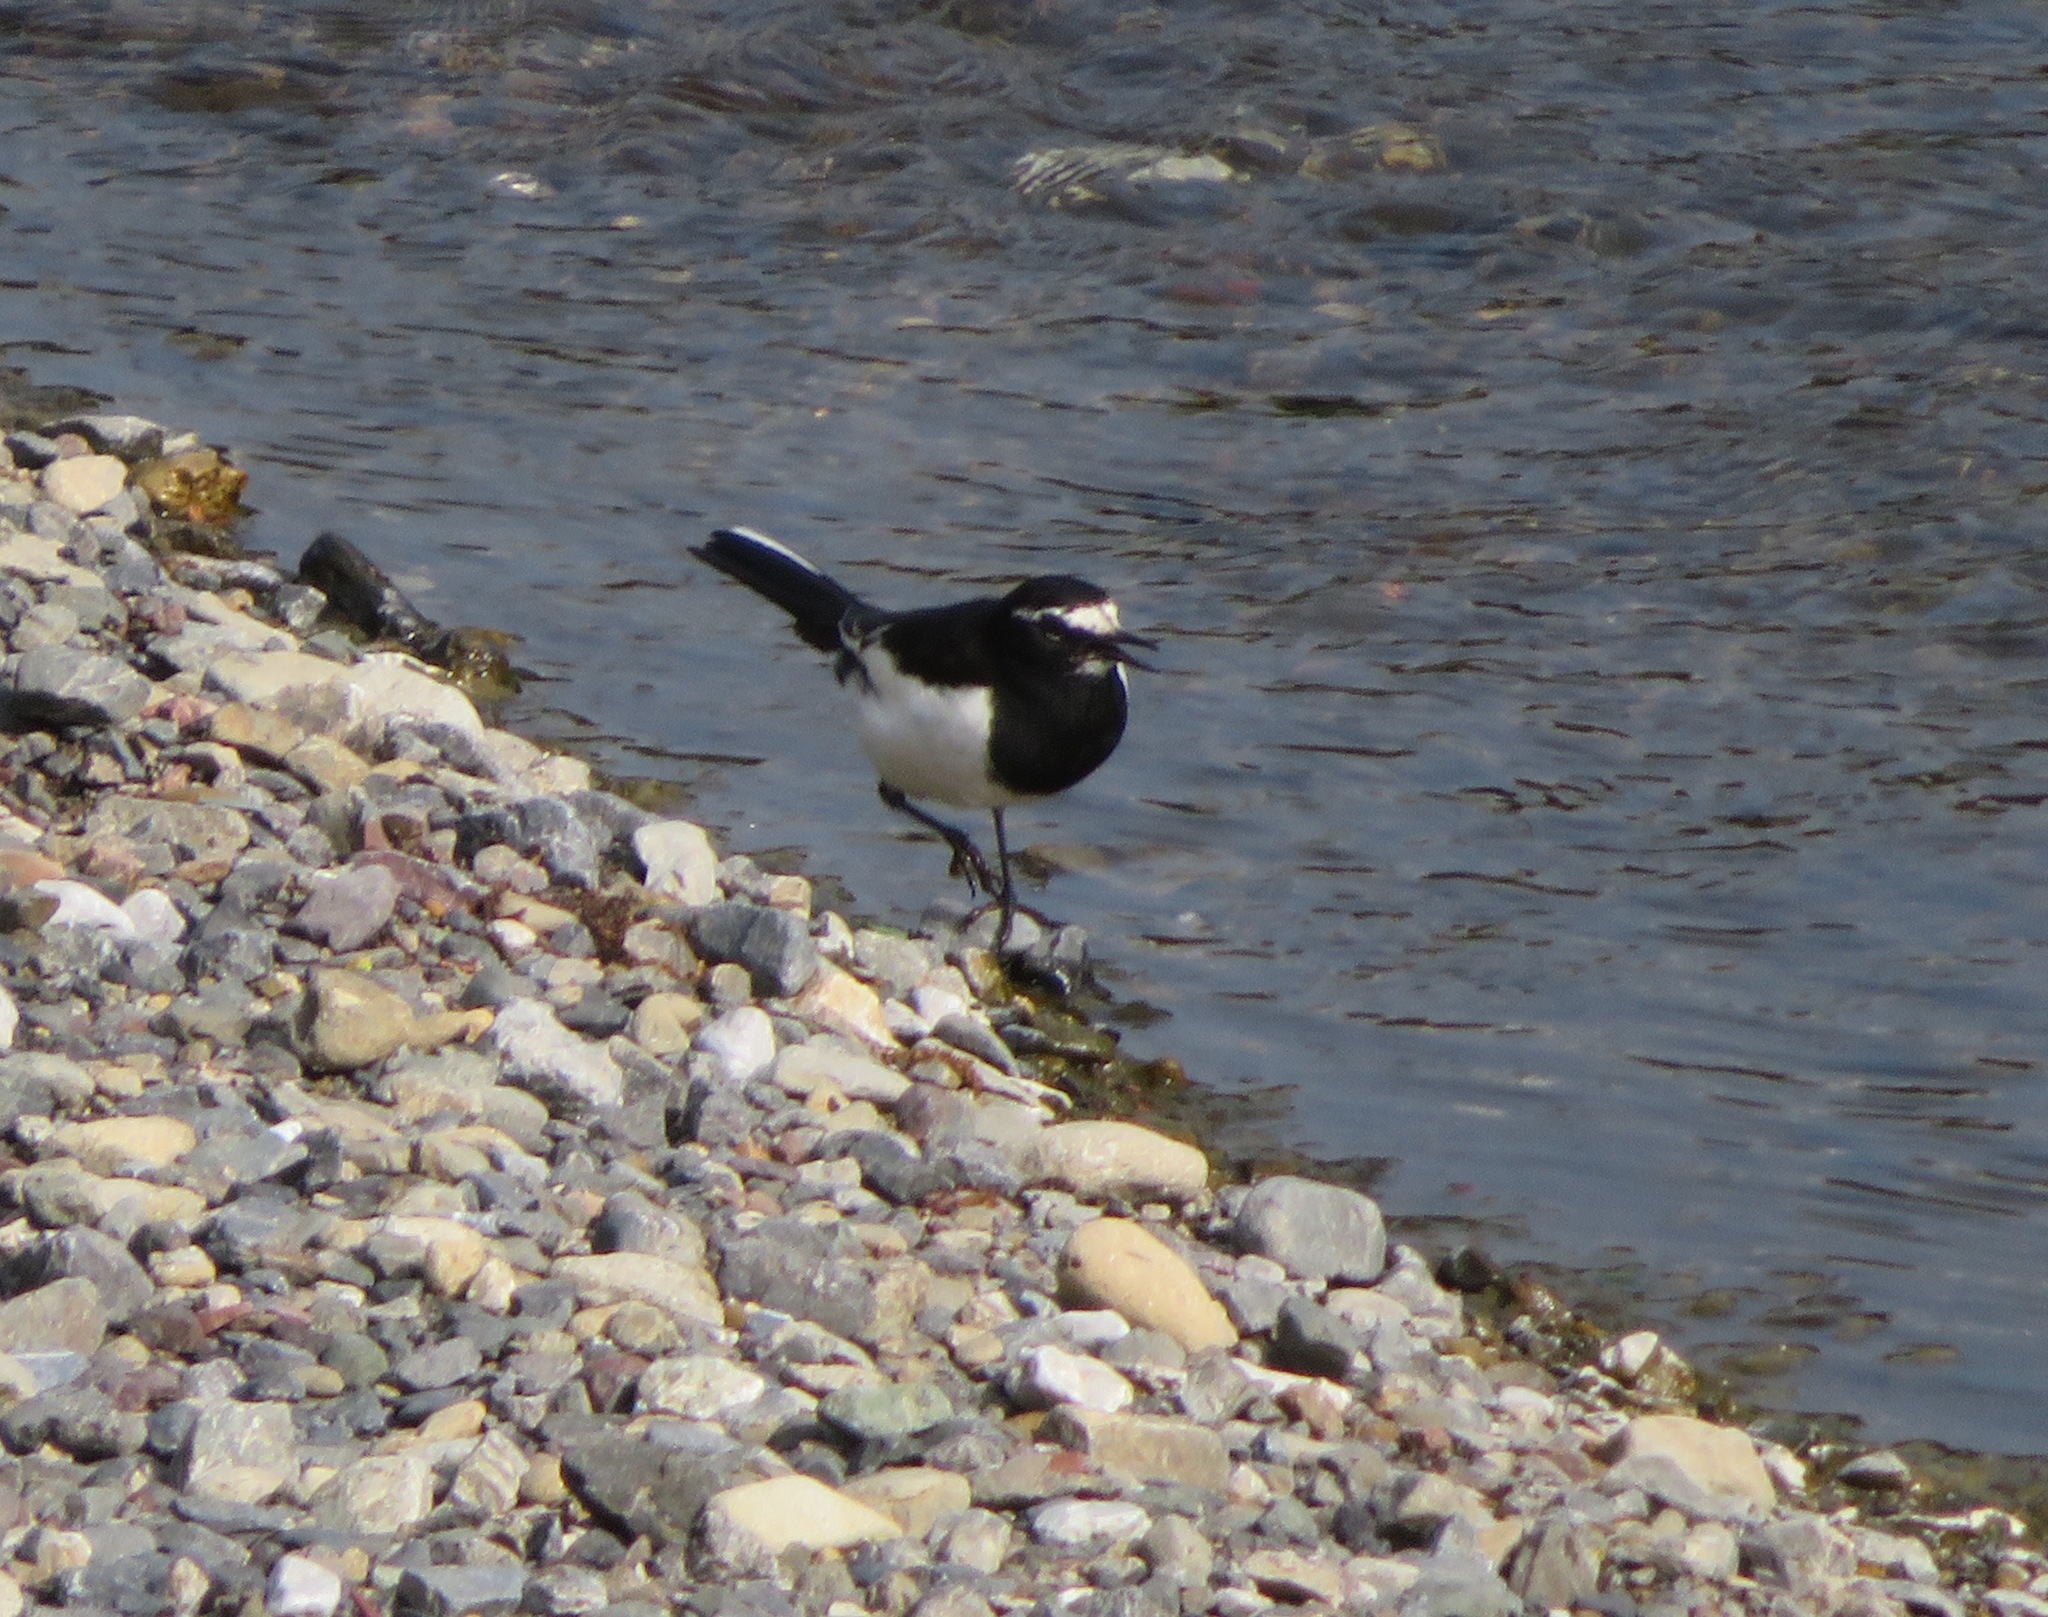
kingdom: Animalia
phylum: Chordata
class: Aves
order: Passeriformes
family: Motacillidae
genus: Motacilla
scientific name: Motacilla grandis
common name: Japanese wagtail
